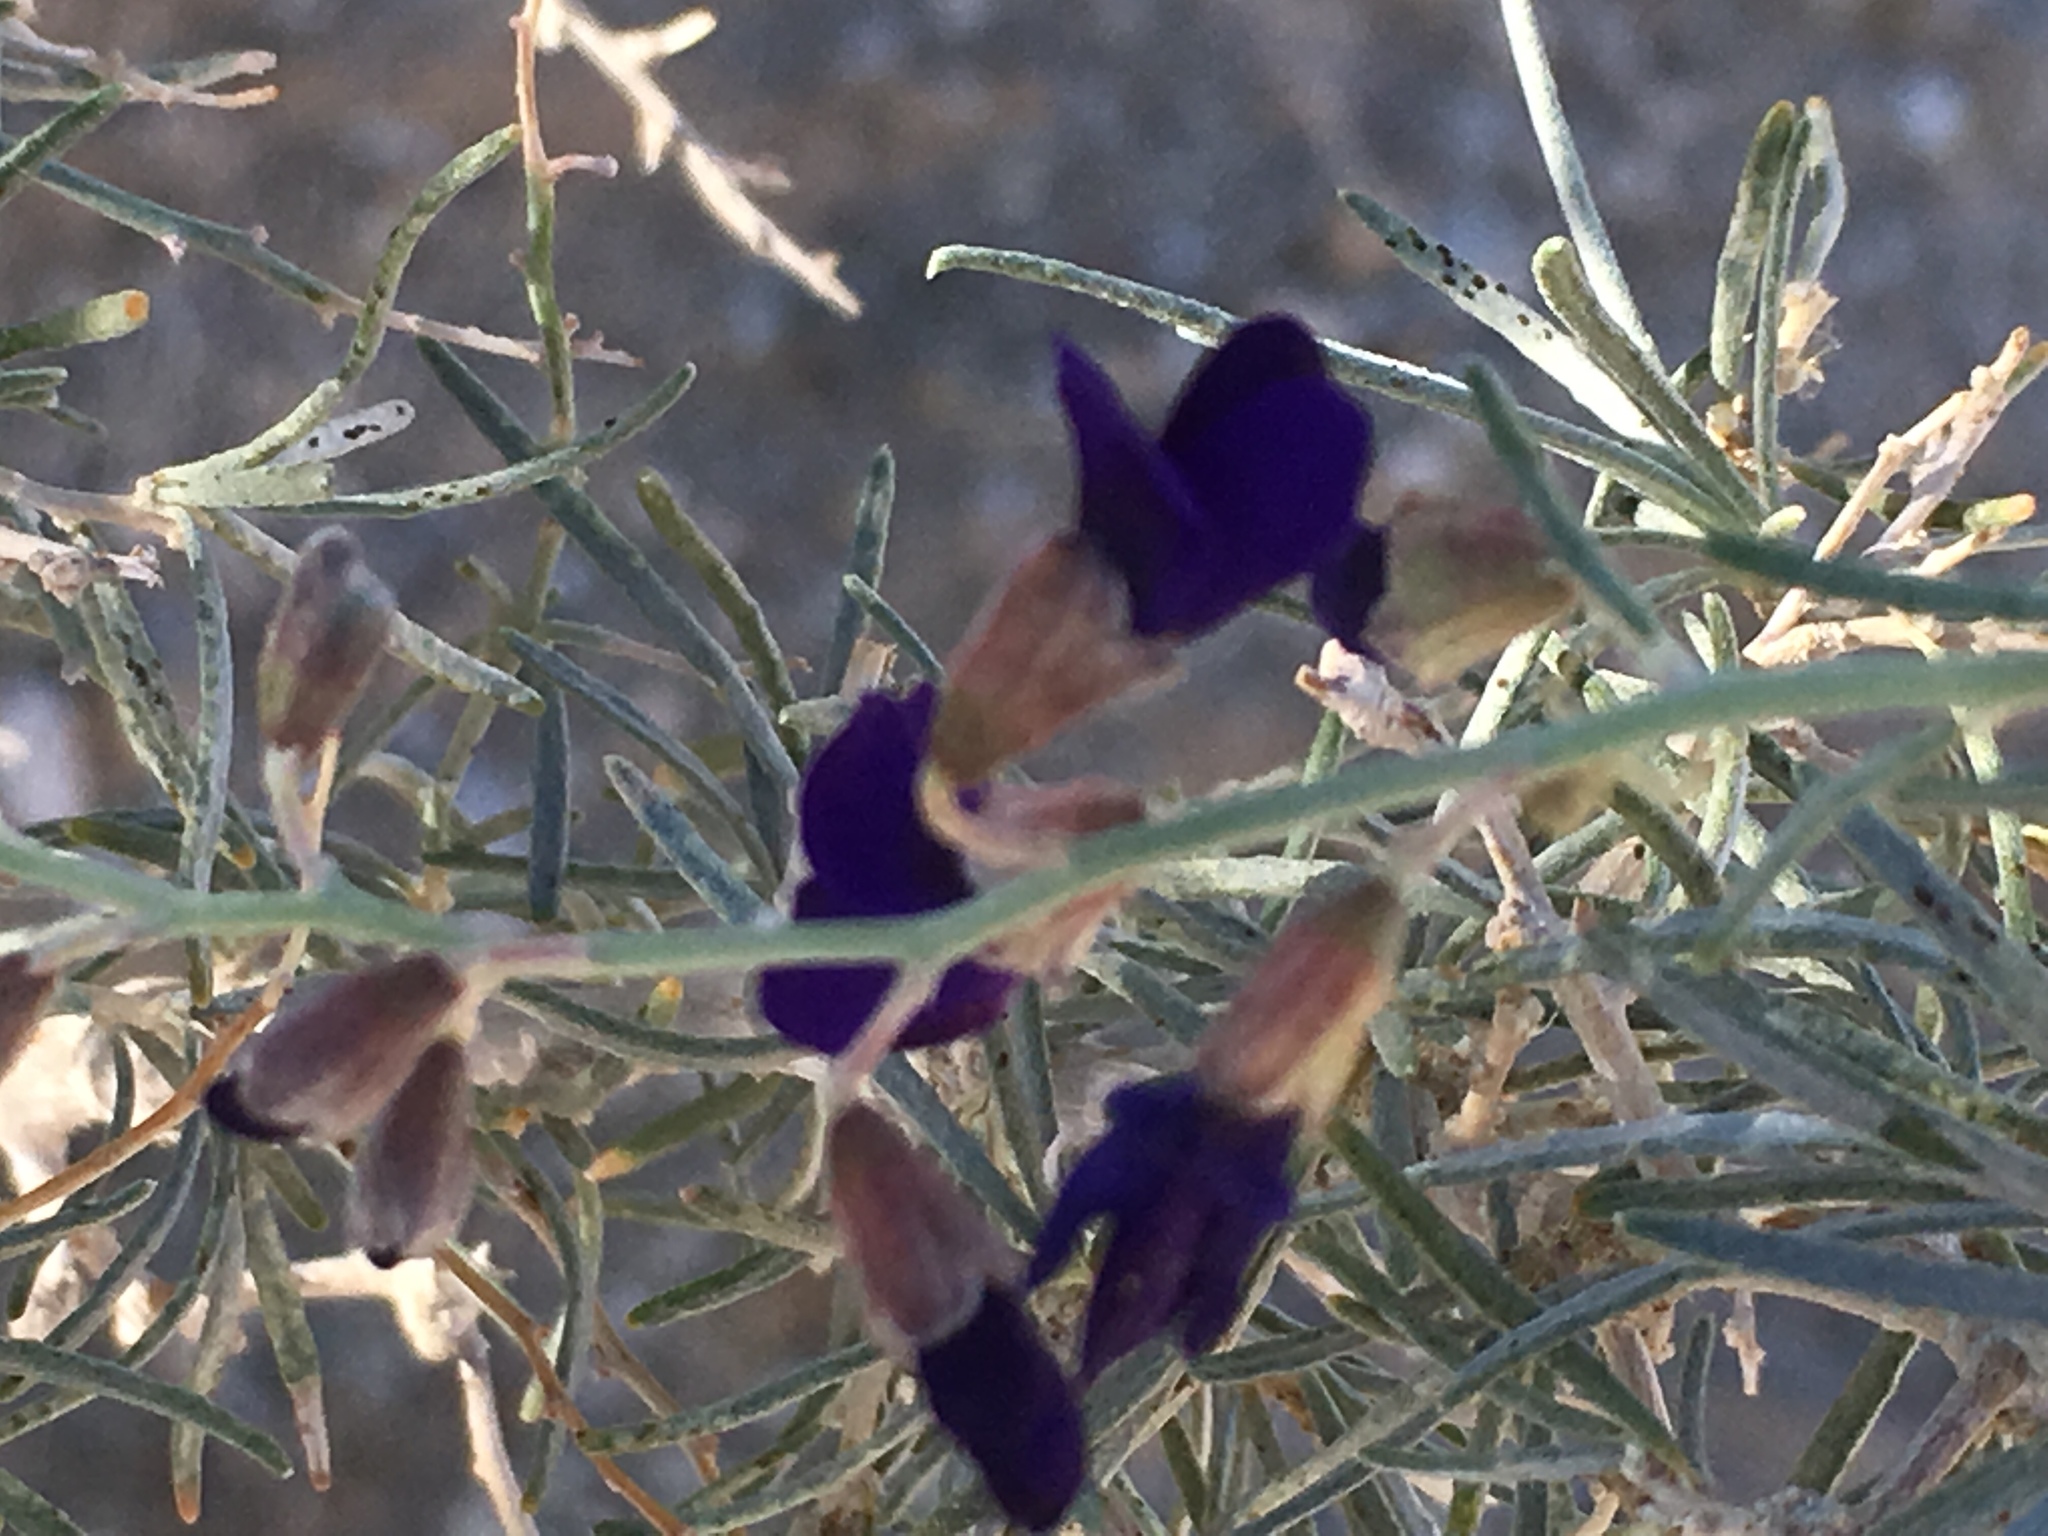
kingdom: Plantae
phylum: Tracheophyta
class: Magnoliopsida
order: Fabales
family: Fabaceae
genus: Psorothamnus
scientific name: Psorothamnus schottii
